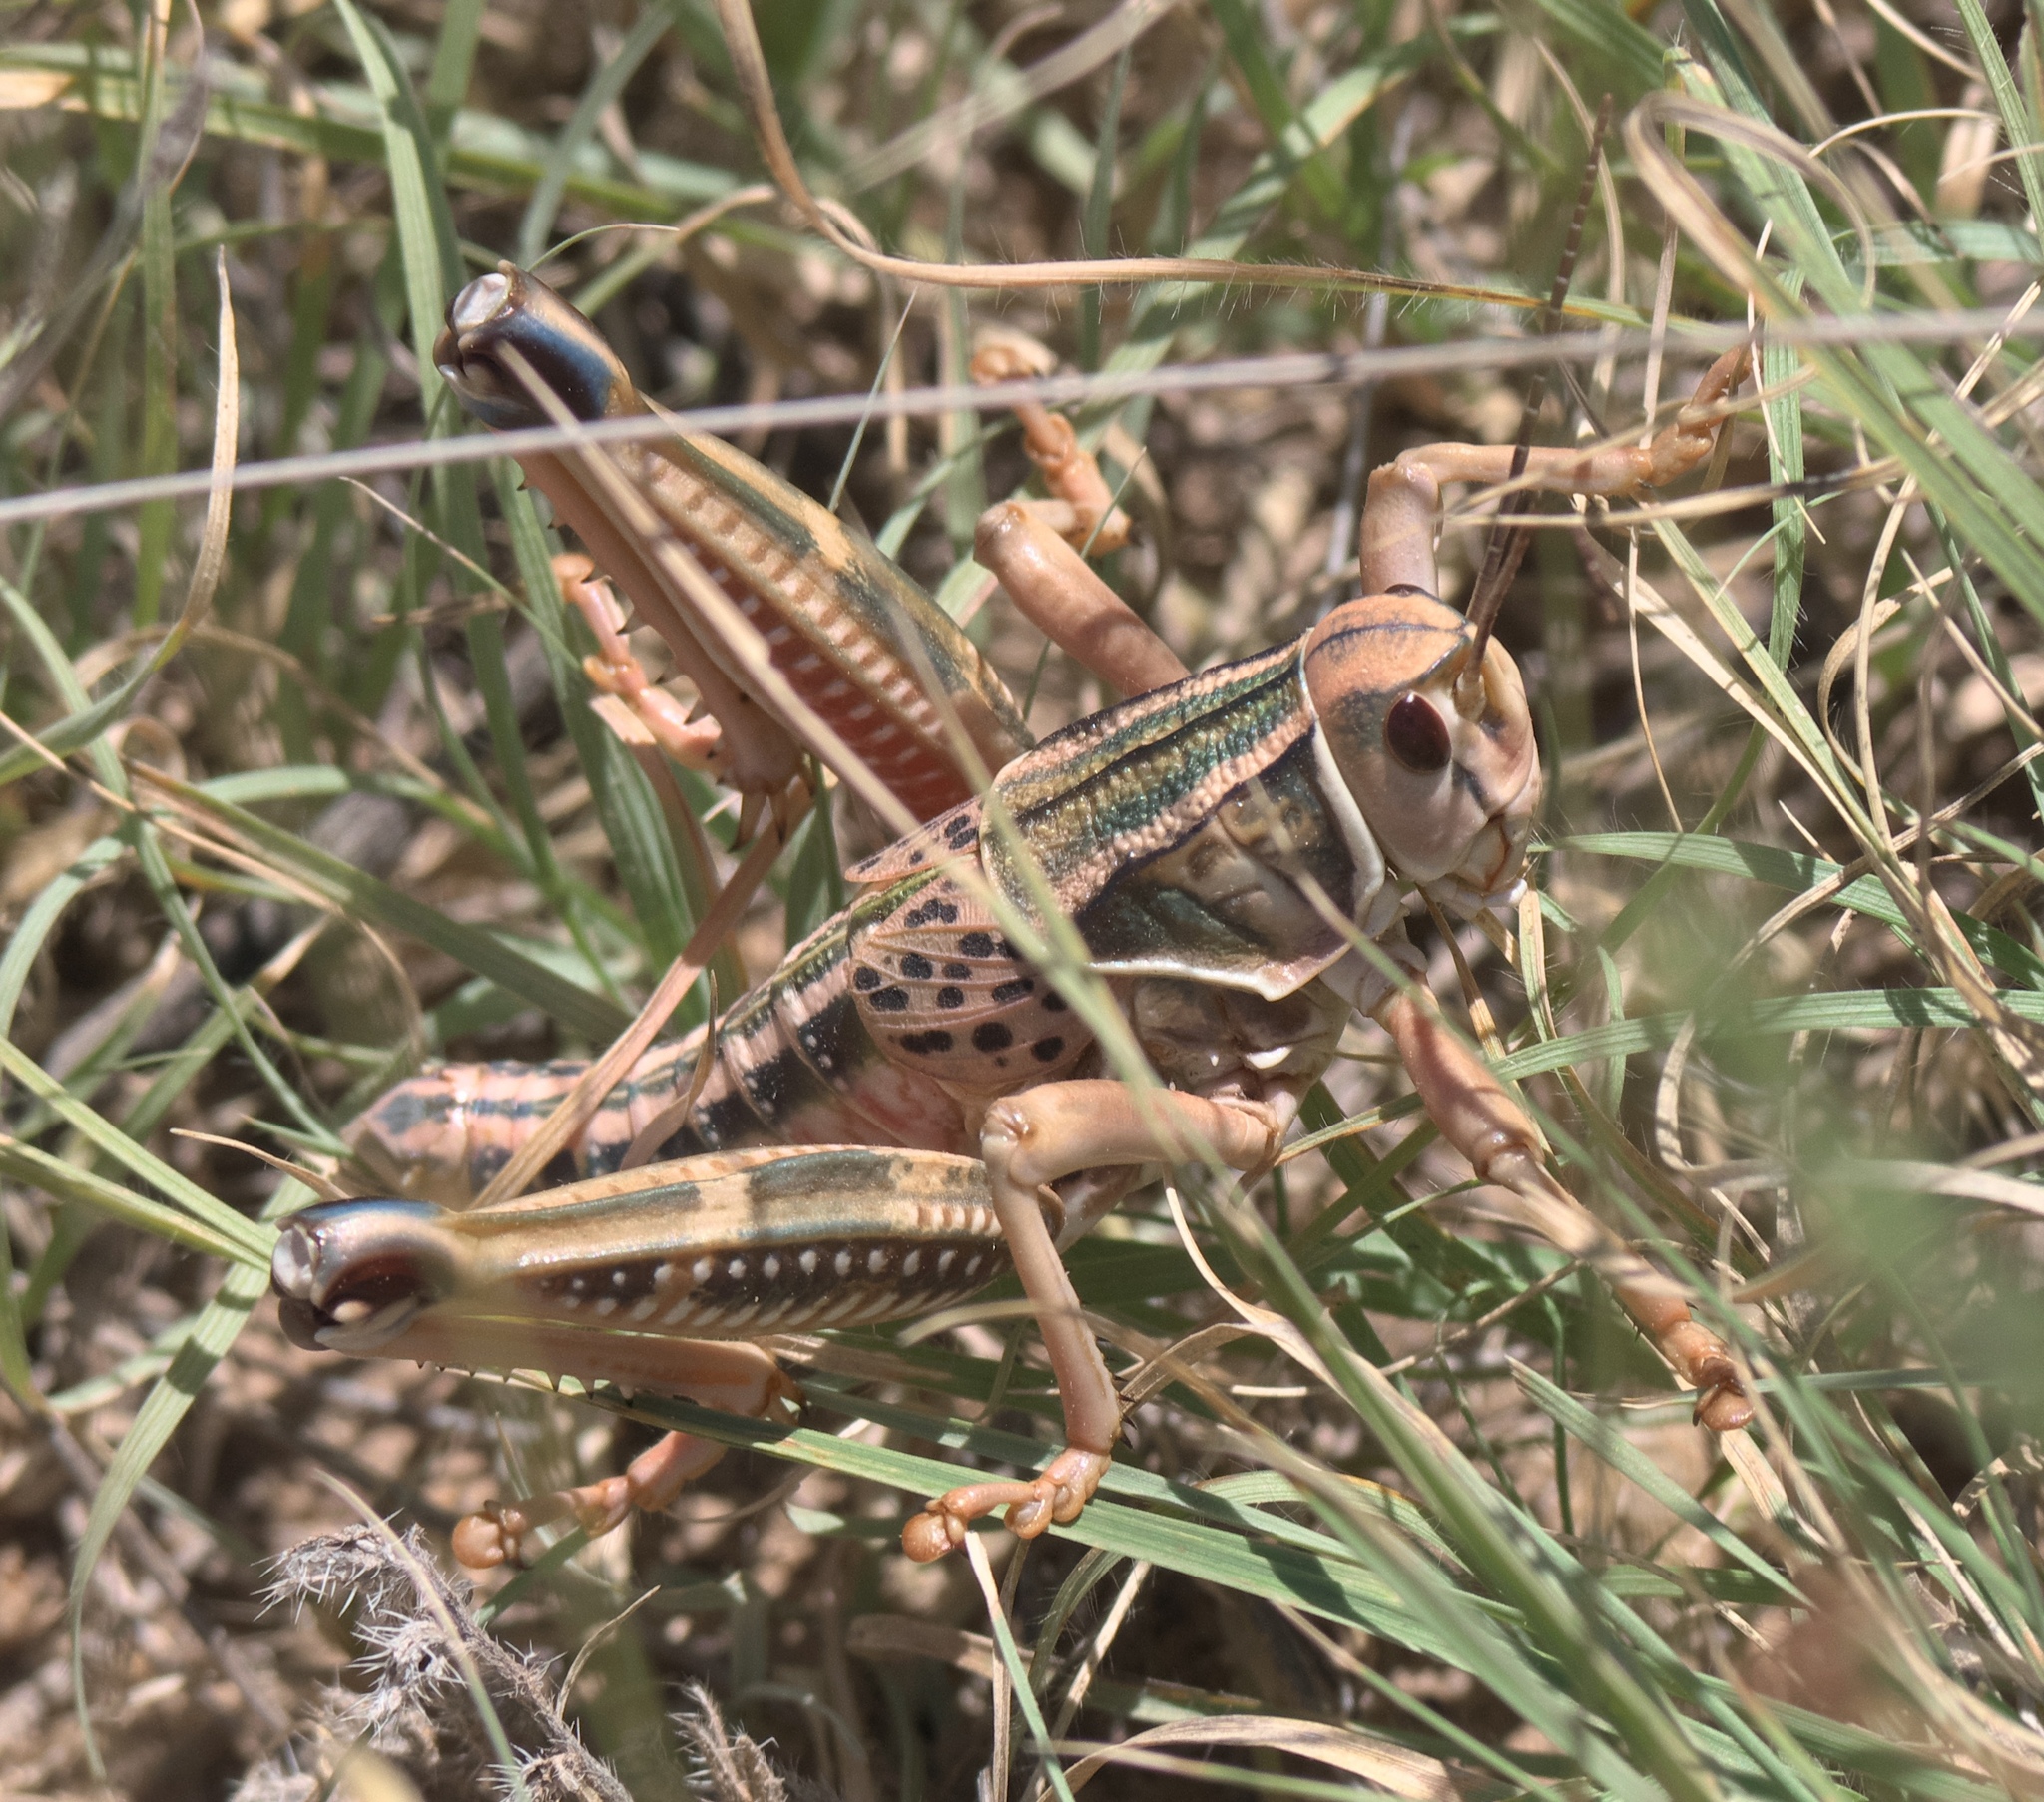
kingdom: Animalia
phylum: Arthropoda
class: Insecta
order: Orthoptera
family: Romaleidae
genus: Brachystola
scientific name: Brachystola magna
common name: Plains lubber grasshopper
